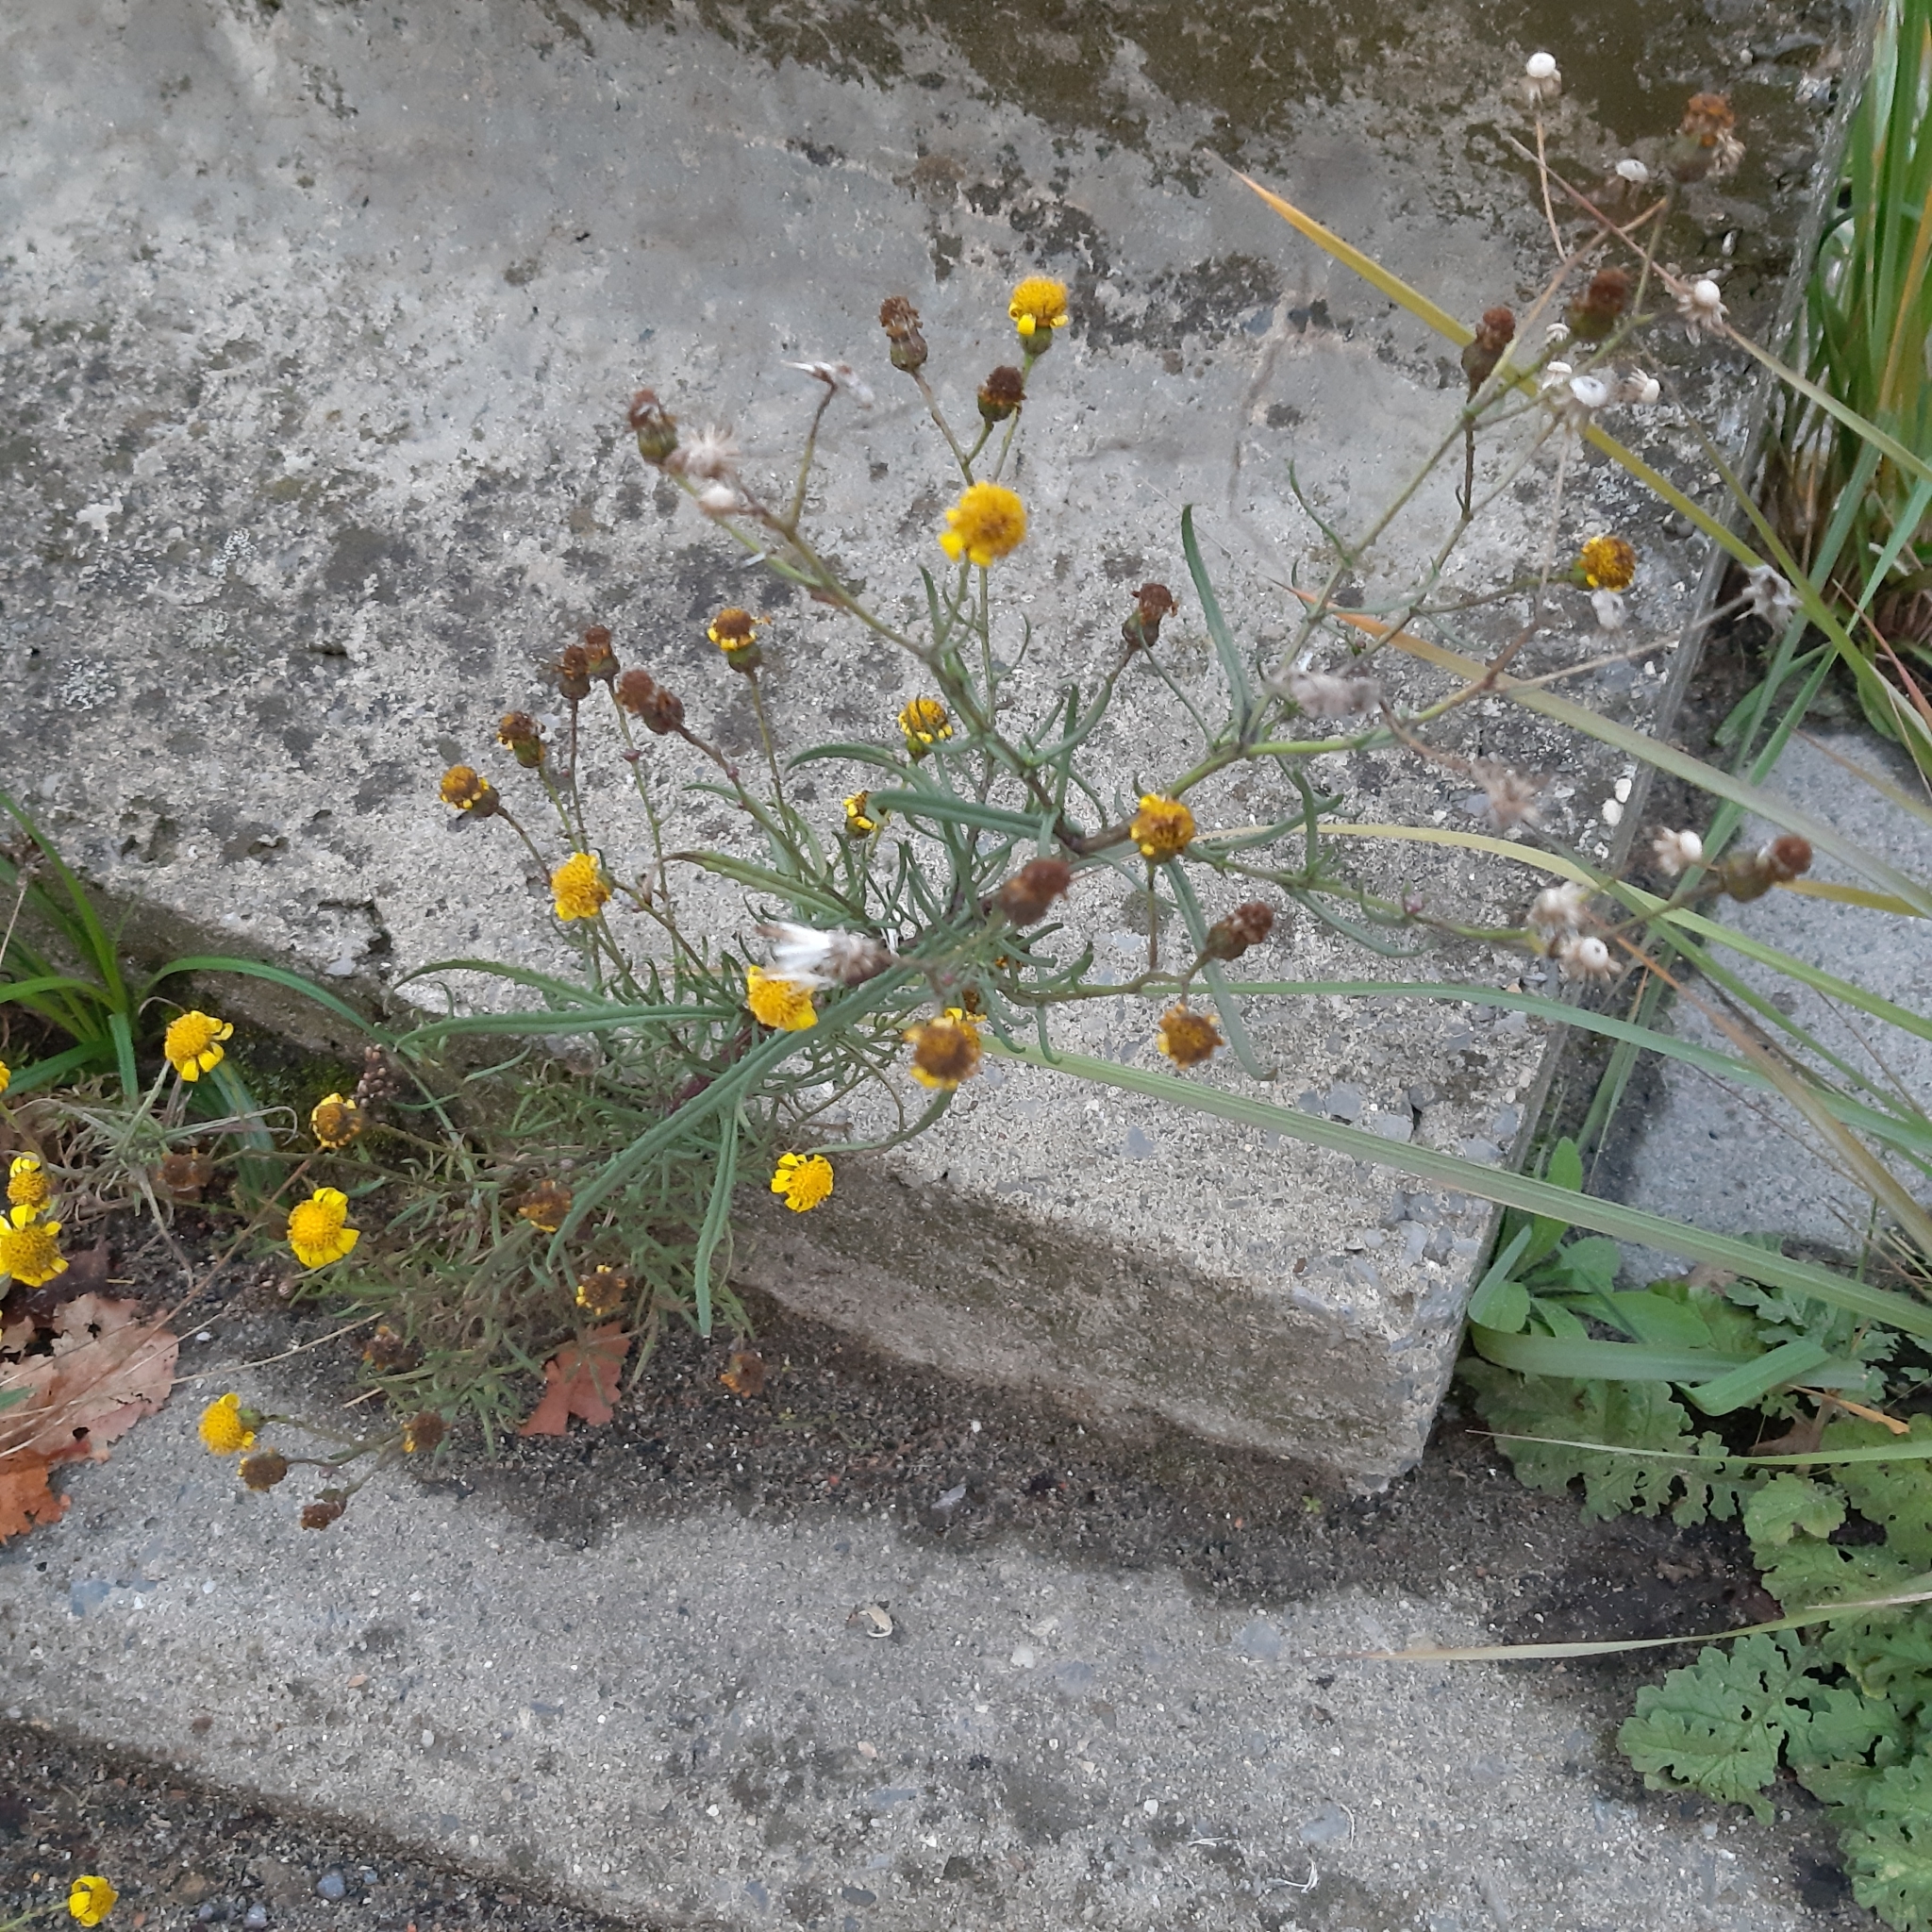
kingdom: Plantae
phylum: Tracheophyta
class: Magnoliopsida
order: Asterales
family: Asteraceae
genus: Senecio
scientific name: Senecio inaequidens
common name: Narrow-leaved ragwort
